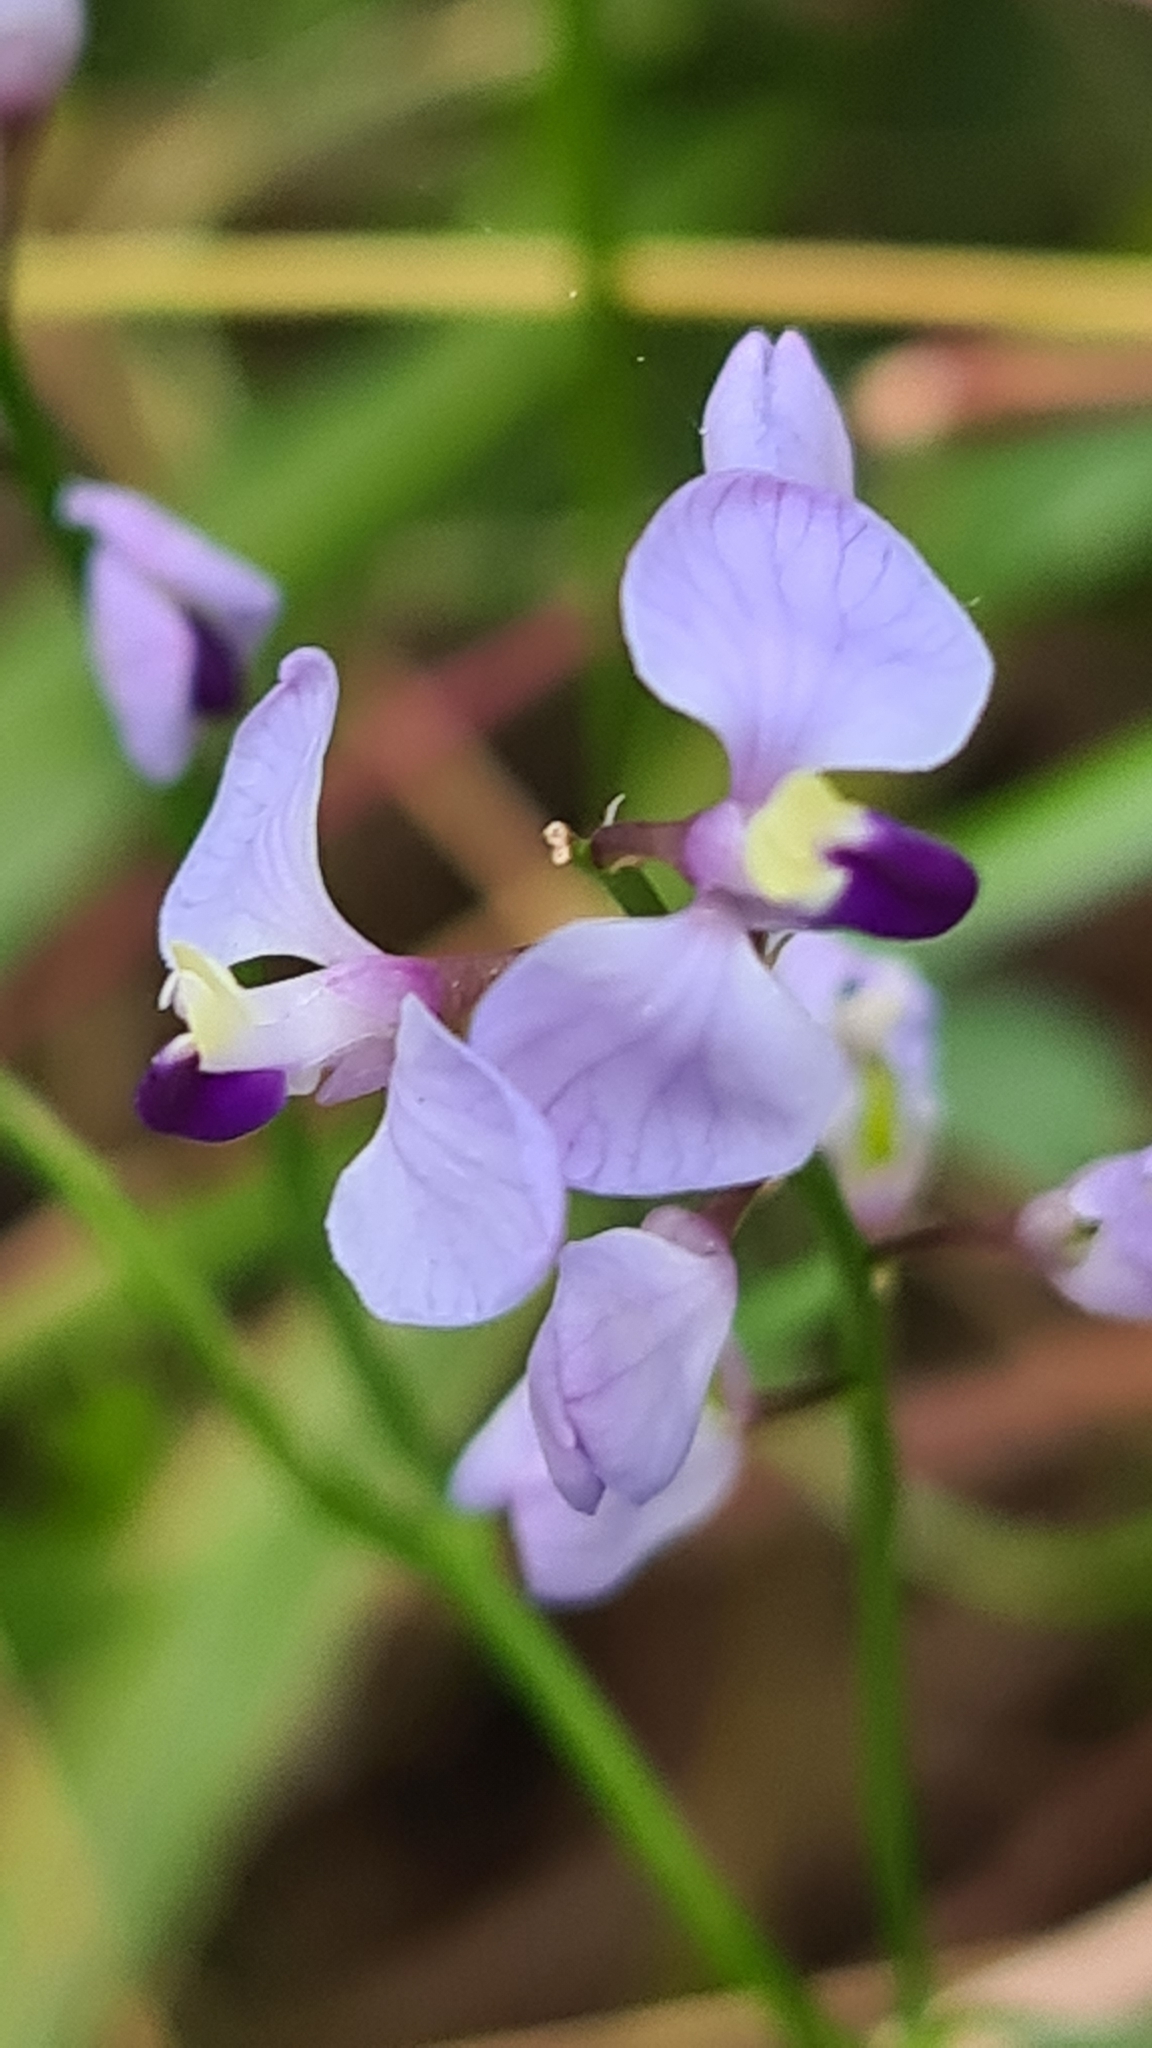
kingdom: Plantae
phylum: Tracheophyta
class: Magnoliopsida
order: Fabales
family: Polygalaceae
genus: Comesperma
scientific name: Comesperma volubile
